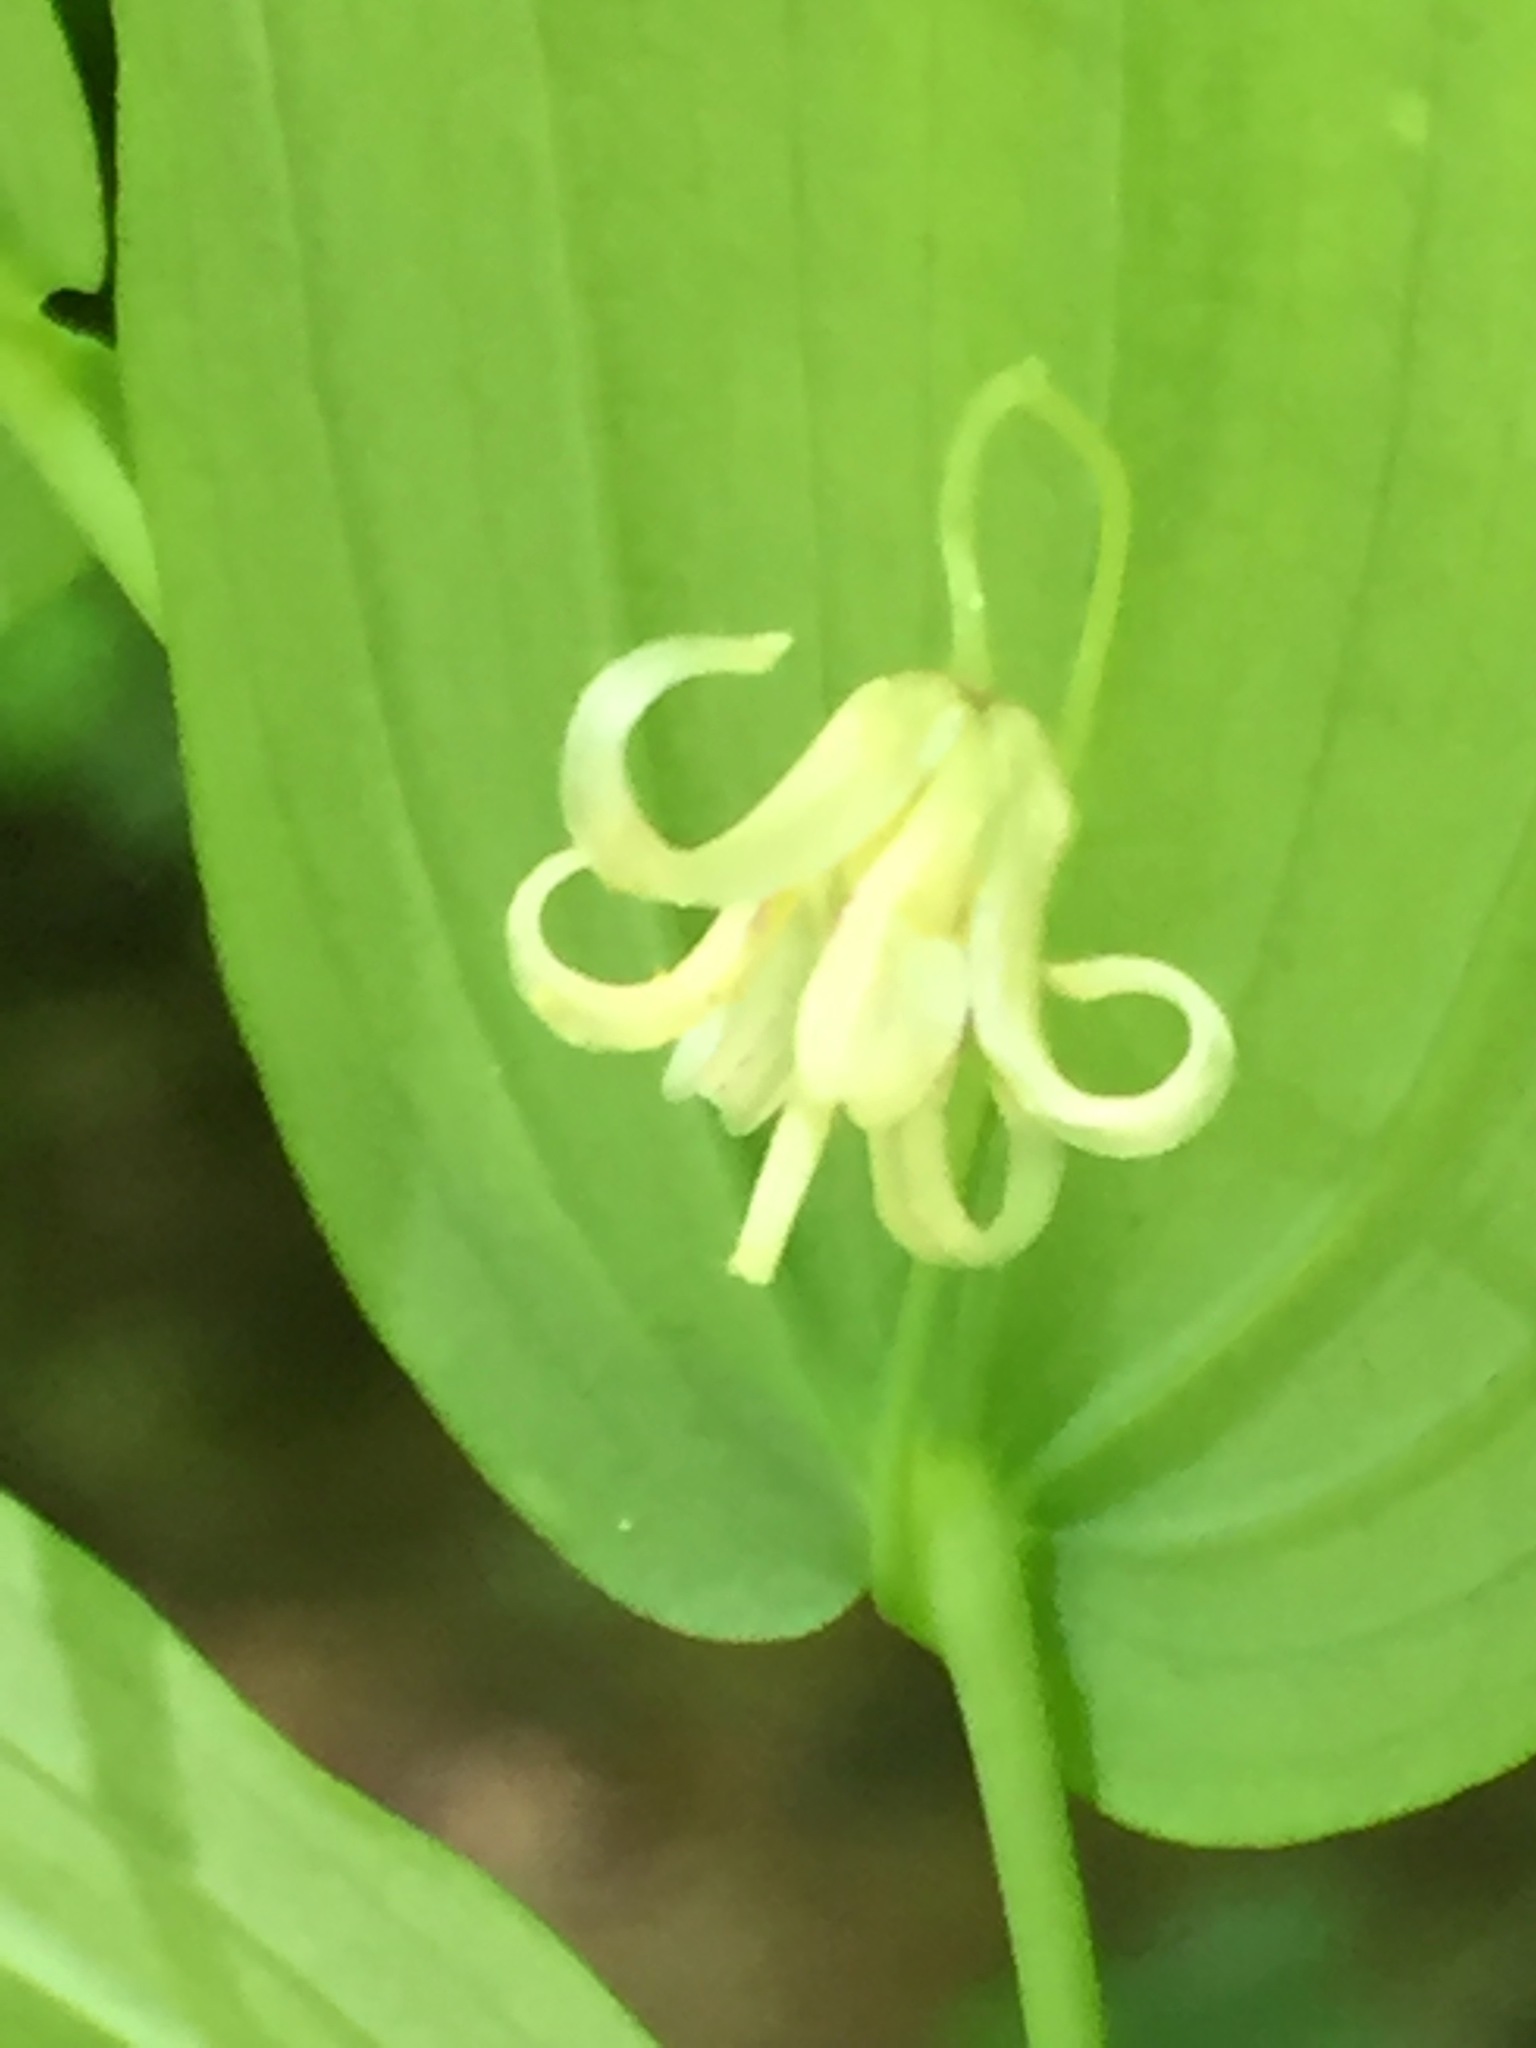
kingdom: Plantae
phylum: Tracheophyta
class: Liliopsida
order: Liliales
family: Liliaceae
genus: Streptopus
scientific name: Streptopus amplexifolius
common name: Clasp twisted stalk
